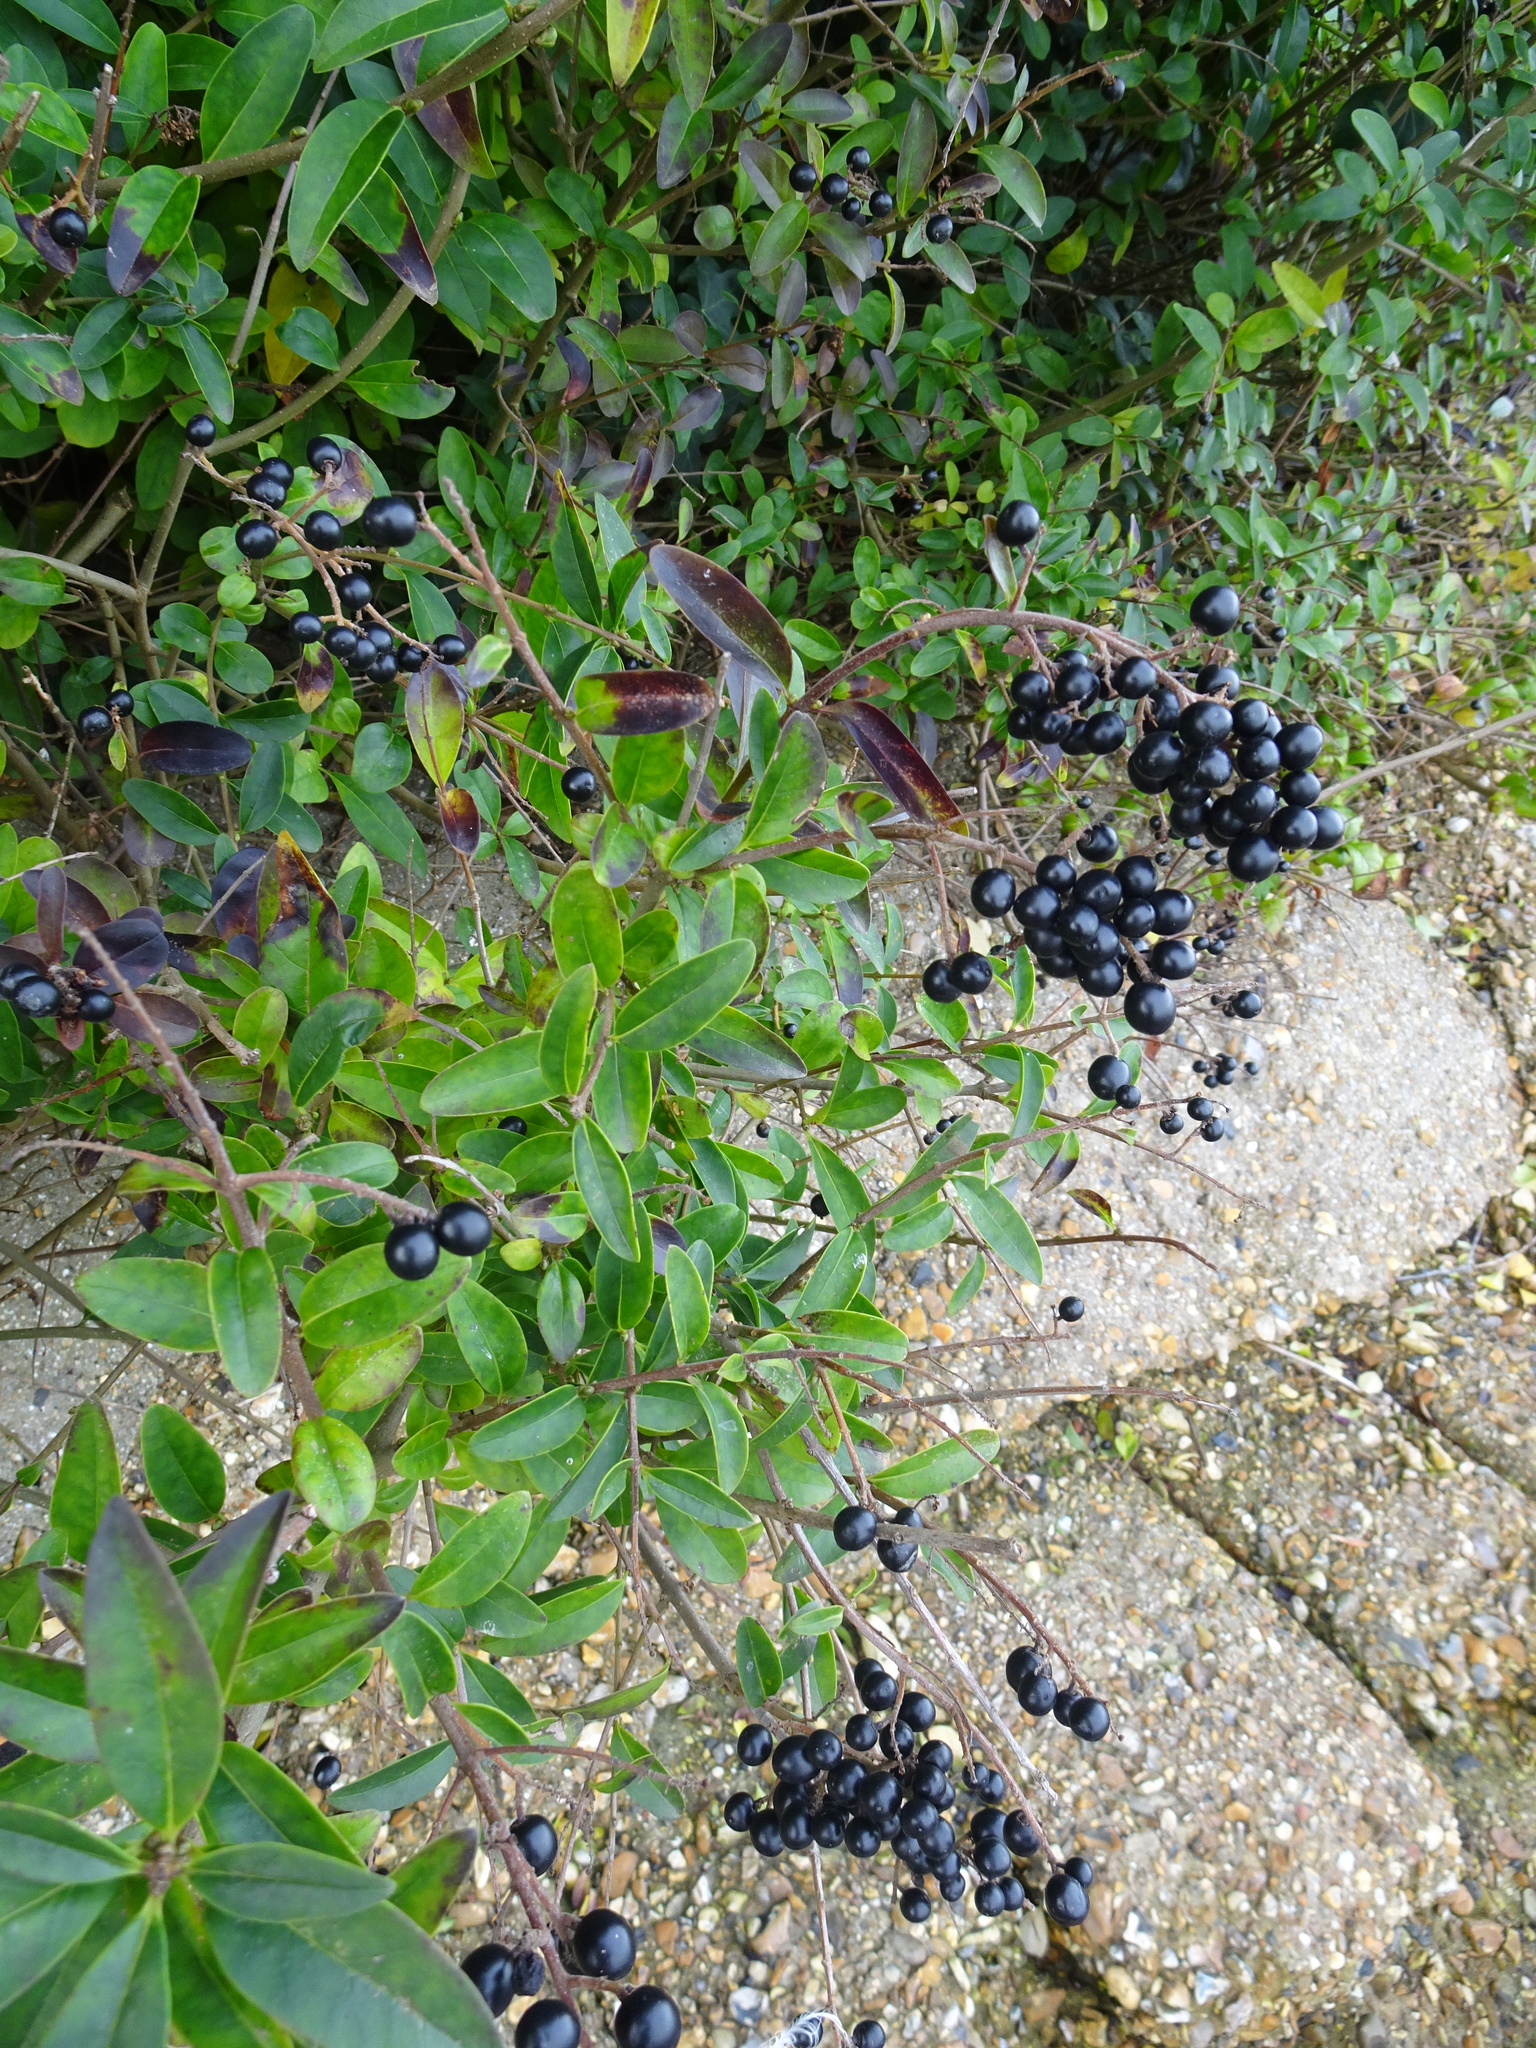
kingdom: Plantae
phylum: Tracheophyta
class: Magnoliopsida
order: Lamiales
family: Oleaceae
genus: Ligustrum
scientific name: Ligustrum vulgare
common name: Wild privet
